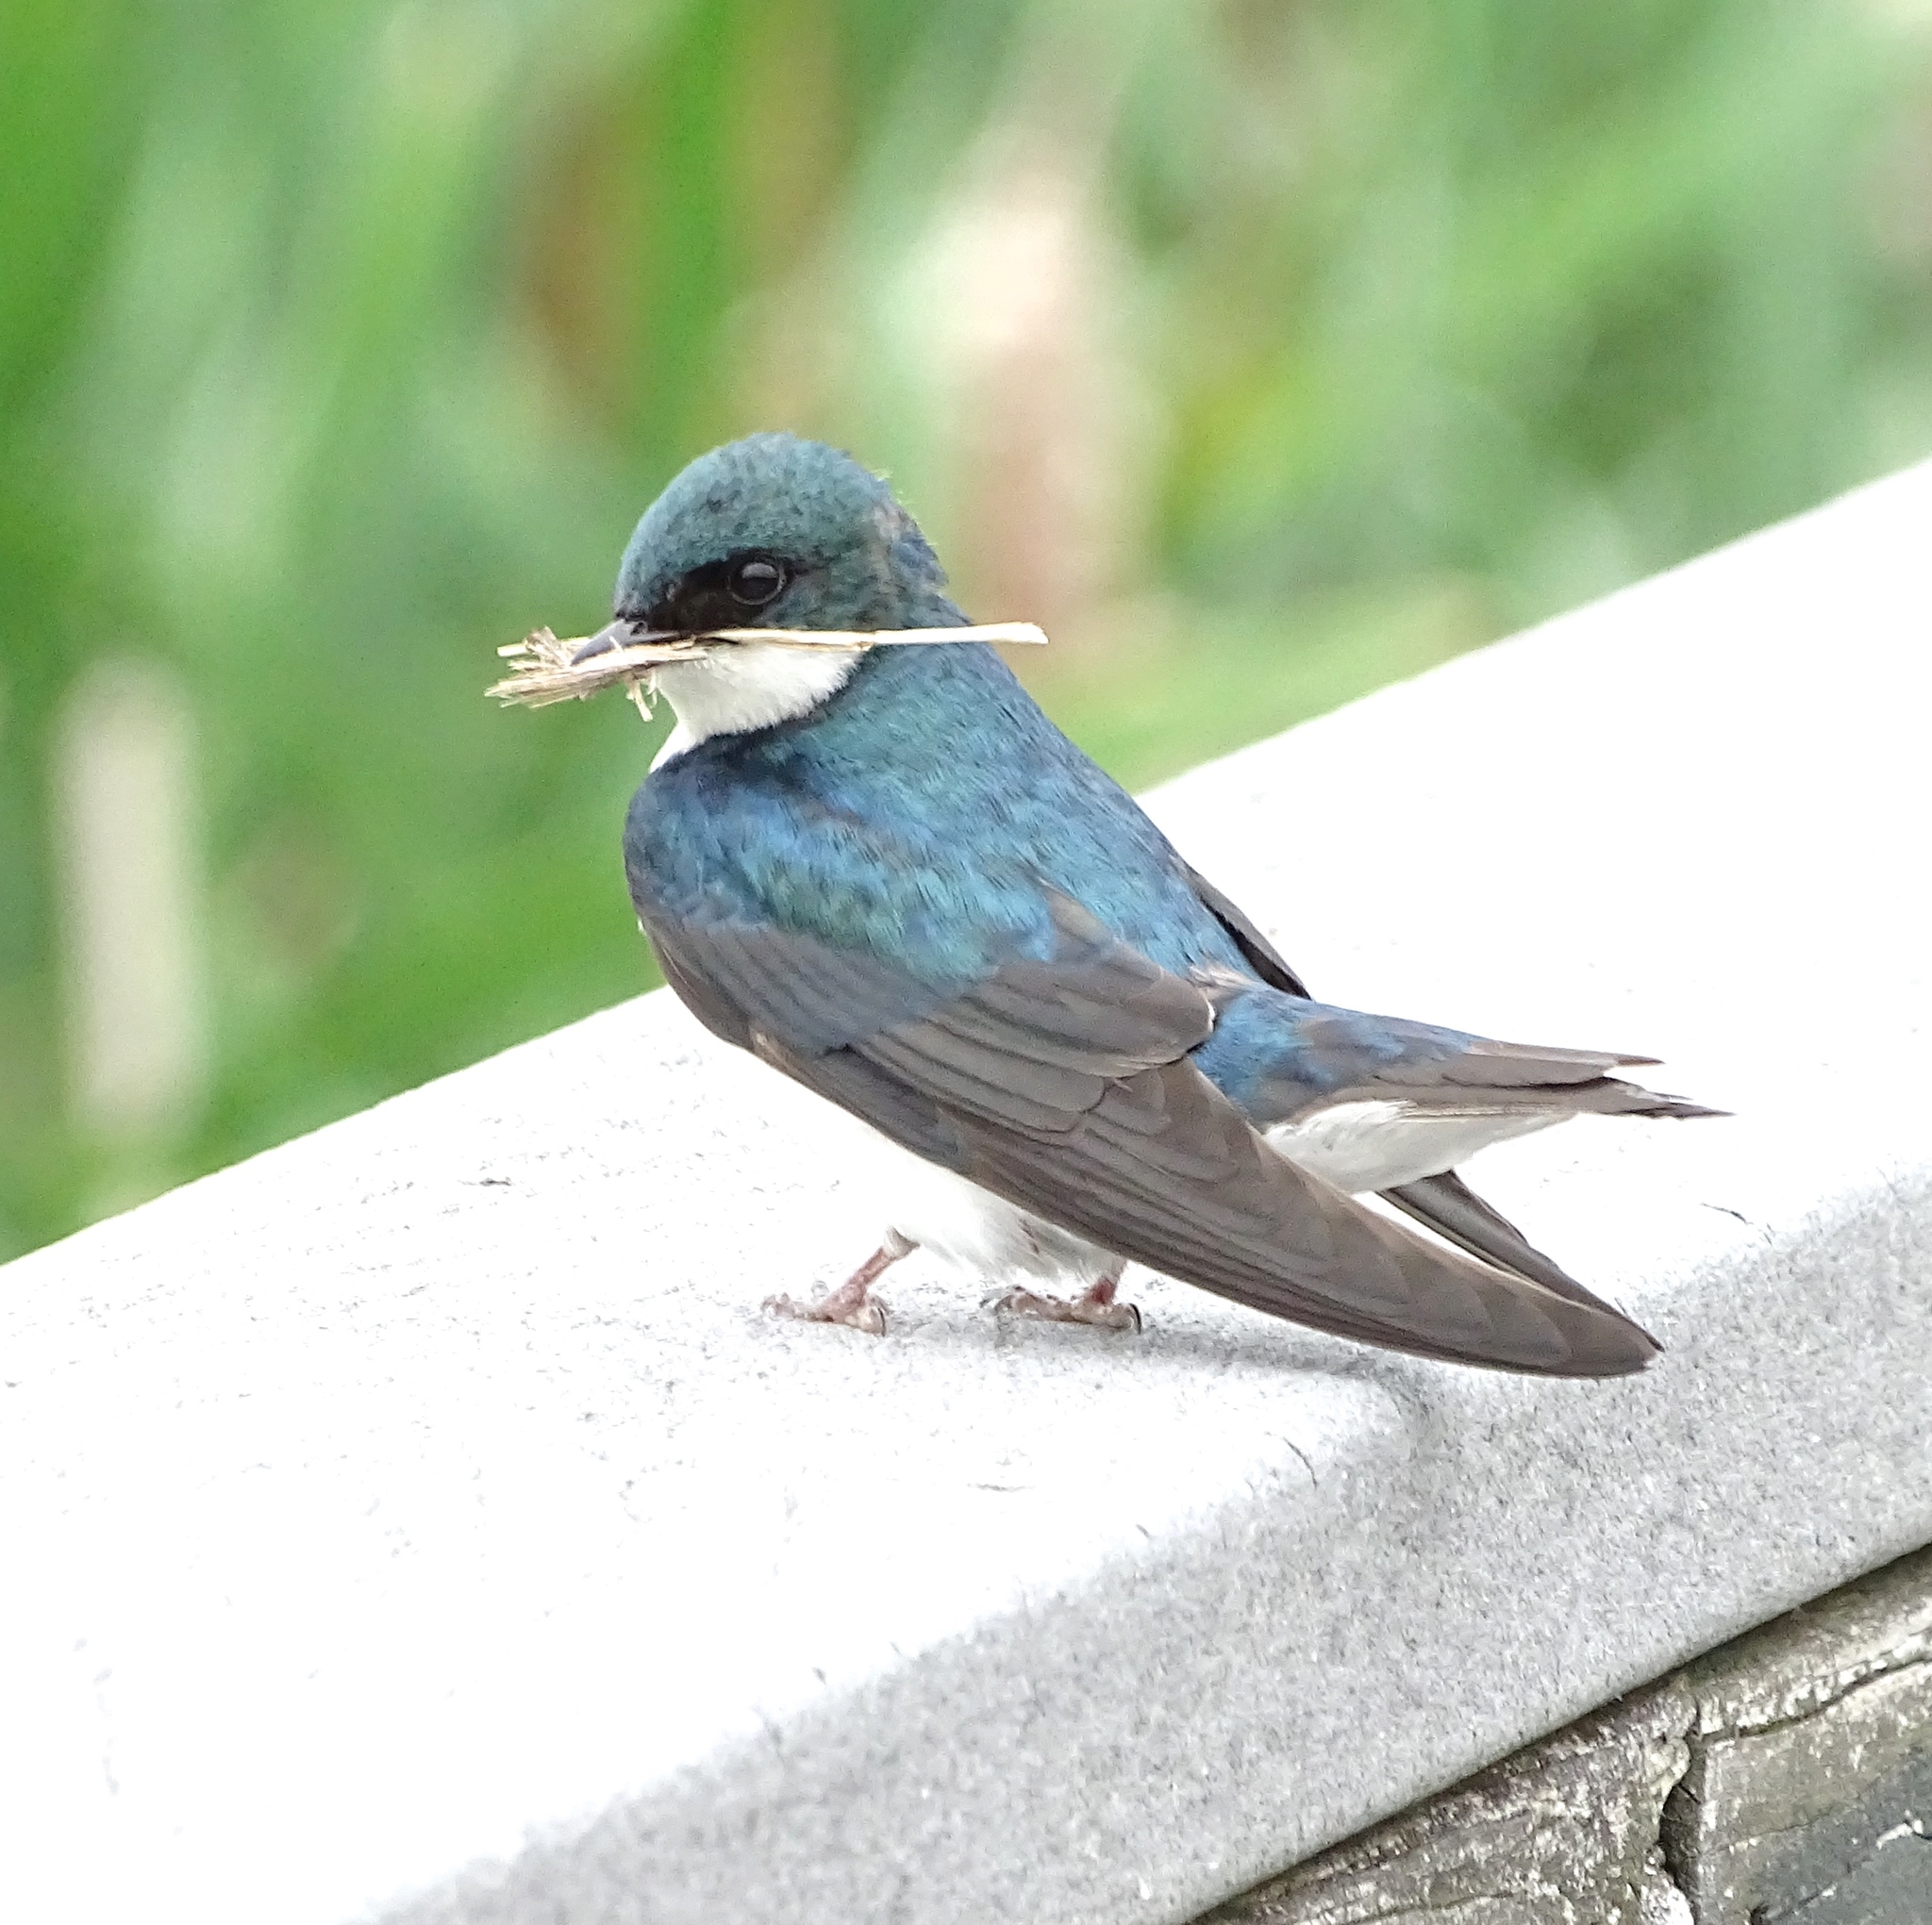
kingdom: Animalia
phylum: Chordata
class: Aves
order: Passeriformes
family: Hirundinidae
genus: Tachycineta
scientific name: Tachycineta bicolor
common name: Tree swallow
